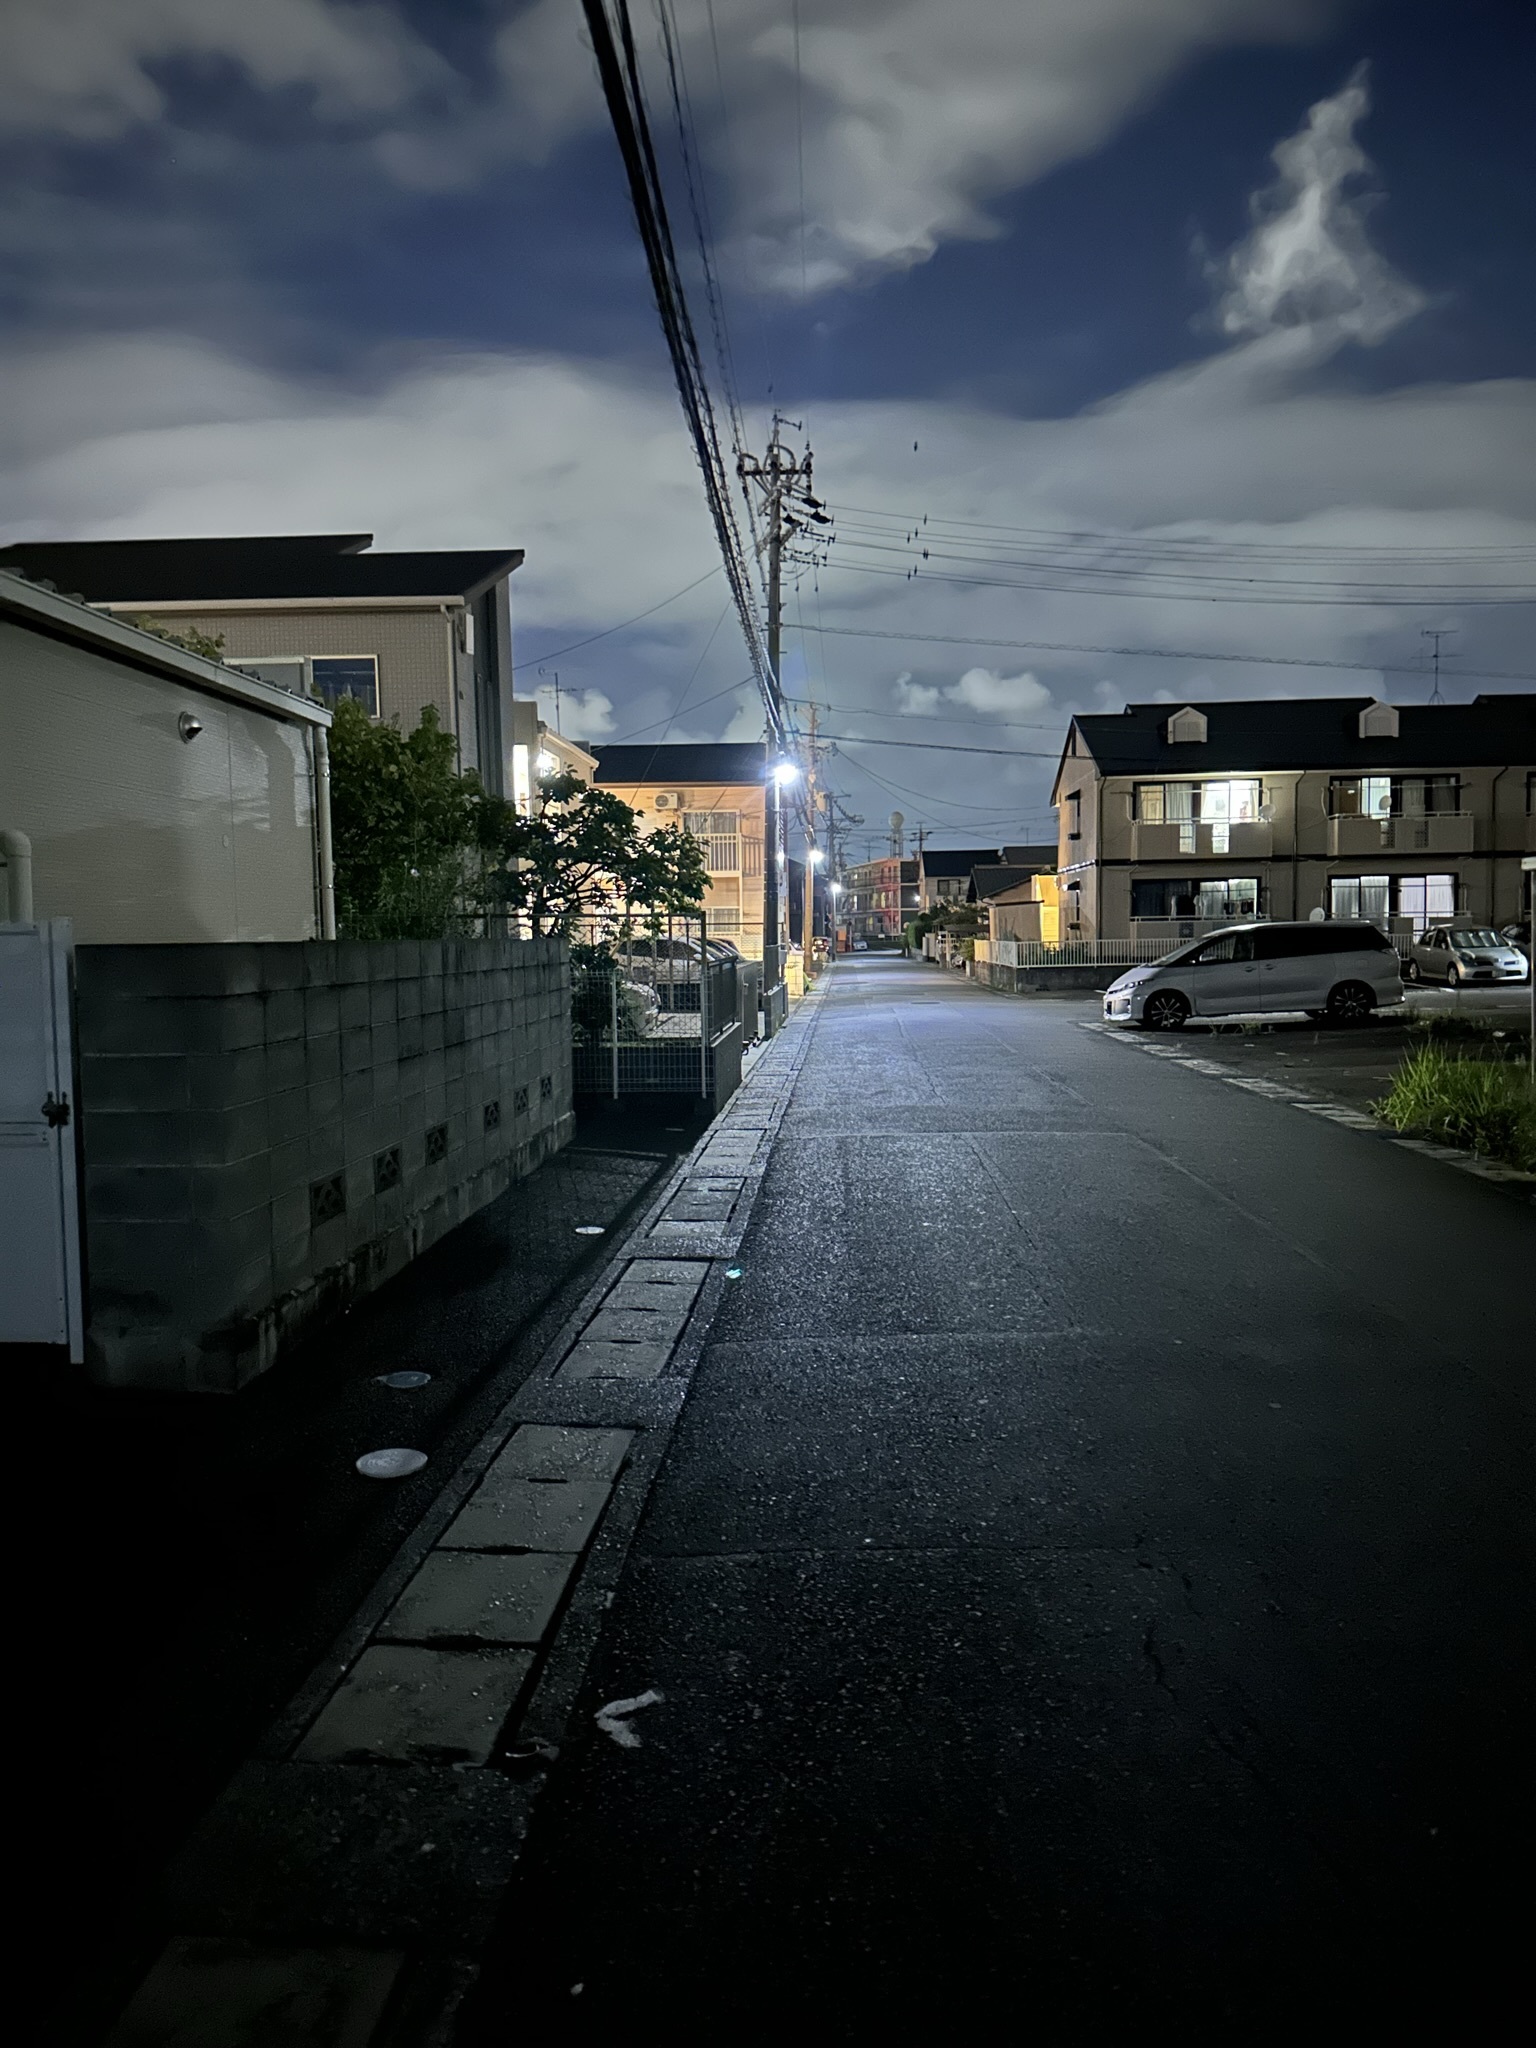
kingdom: Animalia
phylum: Arthropoda
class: Insecta
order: Orthoptera
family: Gryllidae
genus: Teleogryllus
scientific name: Teleogryllus emma
